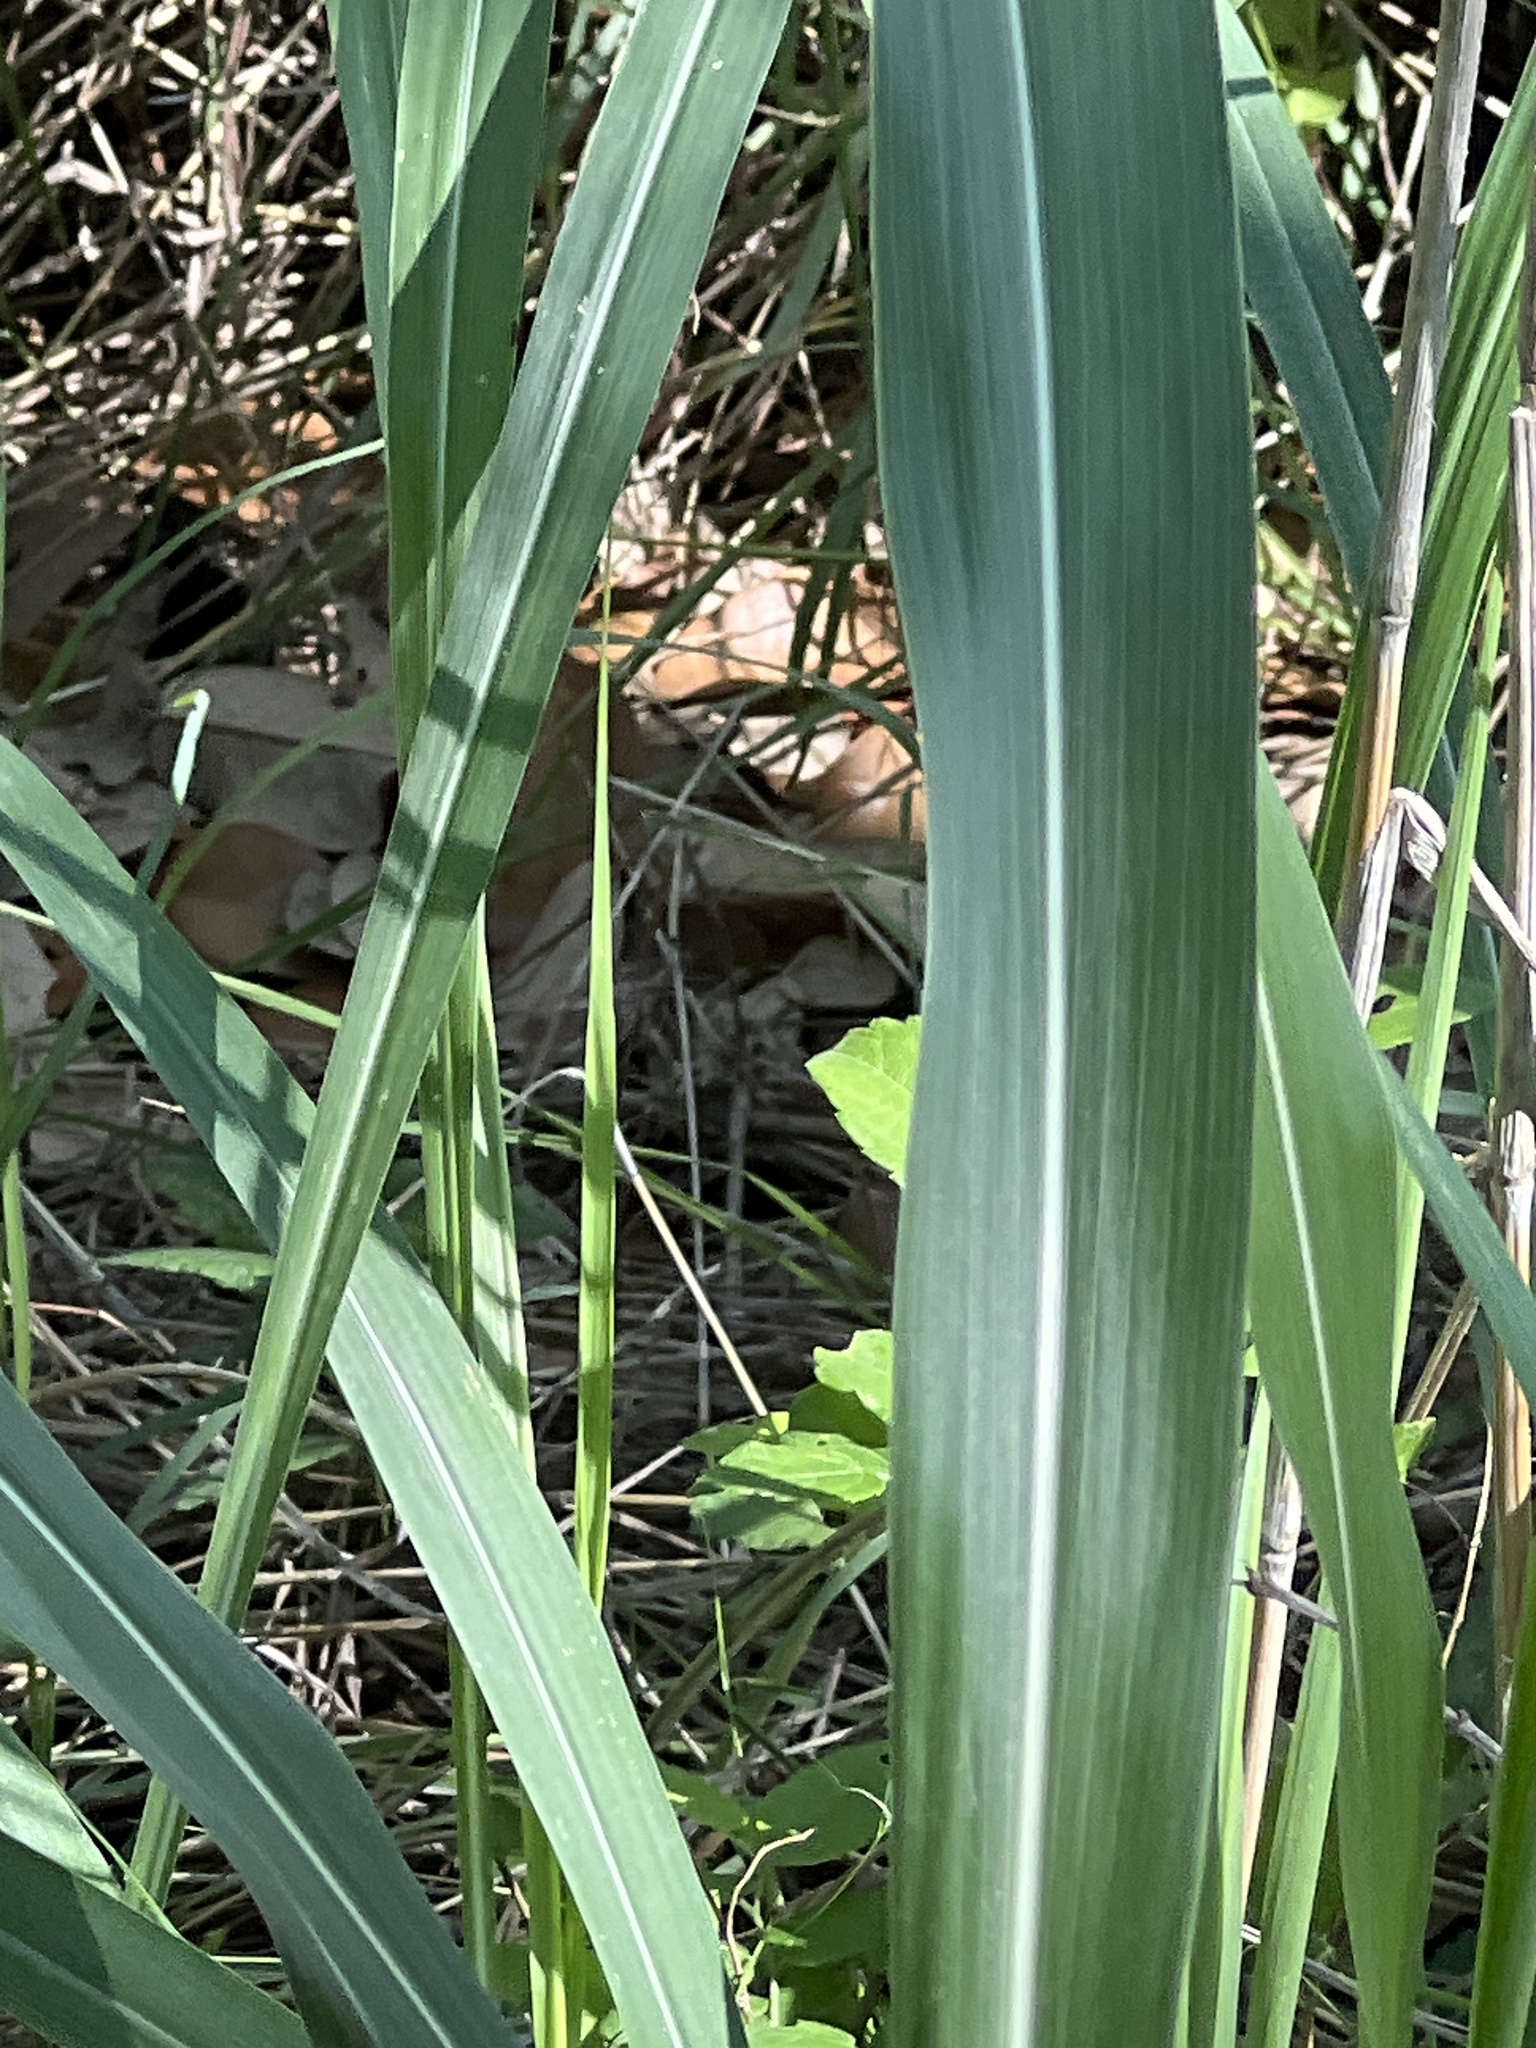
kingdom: Plantae
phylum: Tracheophyta
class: Liliopsida
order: Poales
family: Poaceae
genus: Sorghum
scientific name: Sorghum halepense
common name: Johnson-grass
